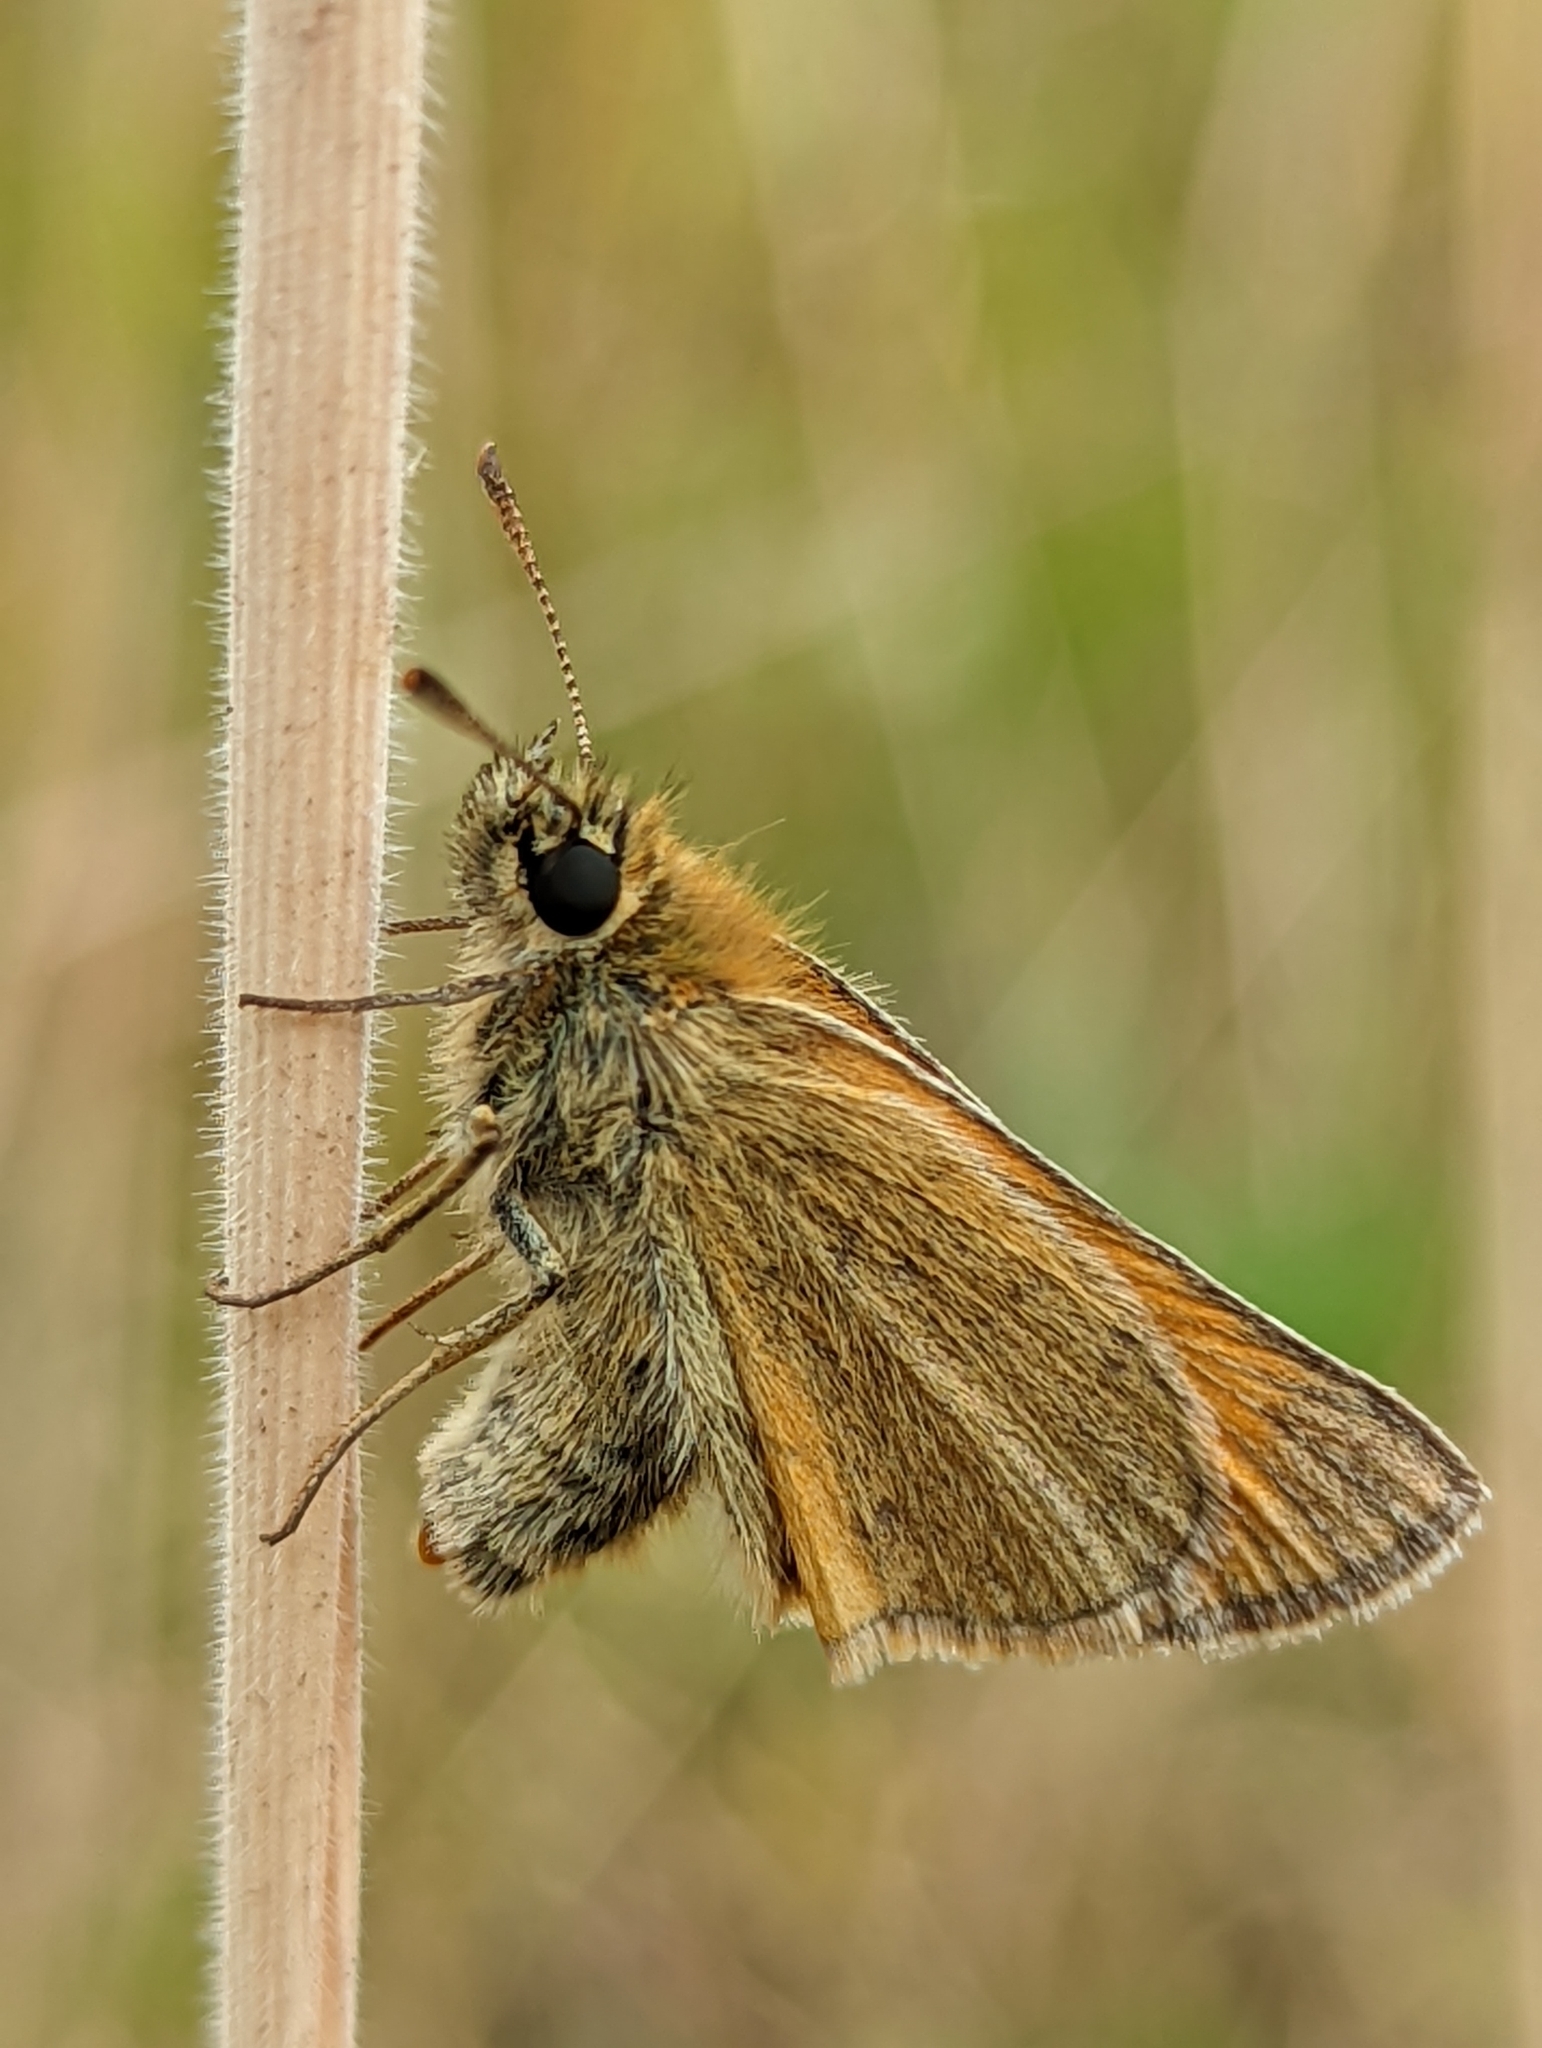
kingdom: Animalia
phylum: Arthropoda
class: Insecta
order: Lepidoptera
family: Hesperiidae
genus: Thymelicus
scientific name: Thymelicus sylvestris
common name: Small skipper
